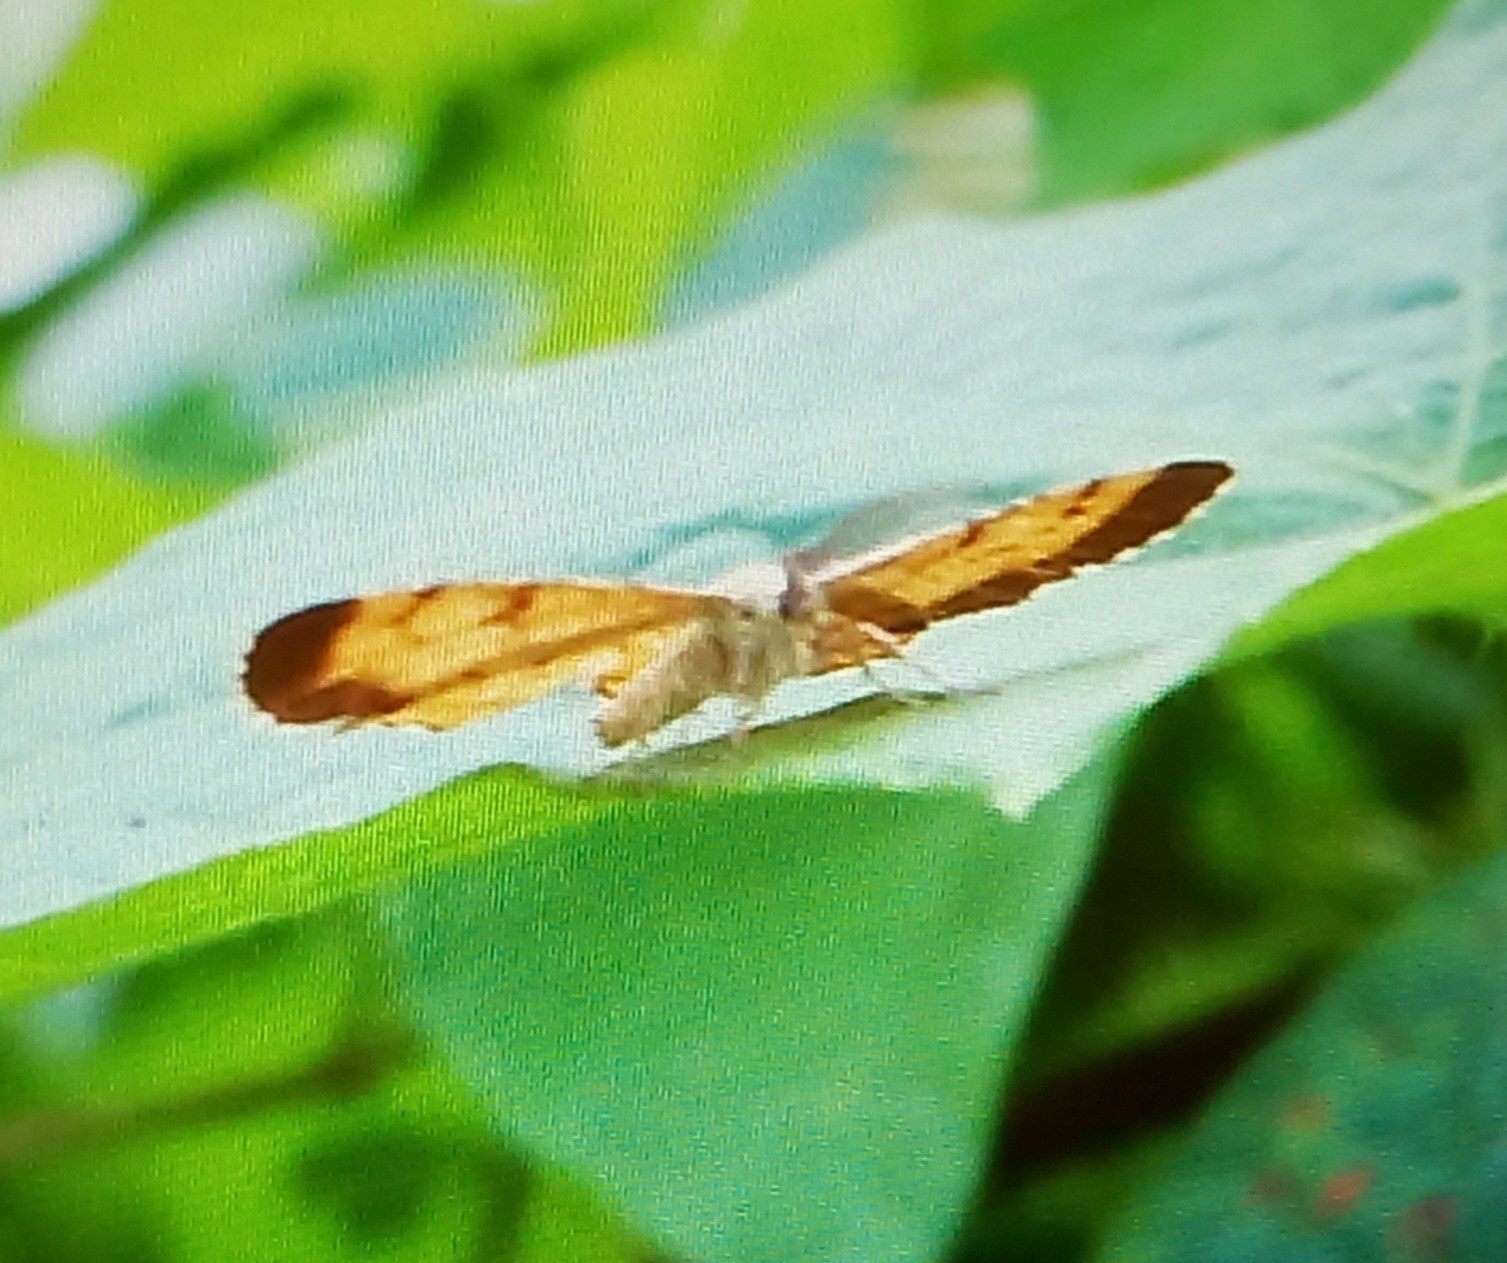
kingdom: Animalia
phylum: Arthropoda
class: Insecta
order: Lepidoptera
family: Geometridae
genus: Ematurga
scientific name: Ematurga atomaria
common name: Common heath
